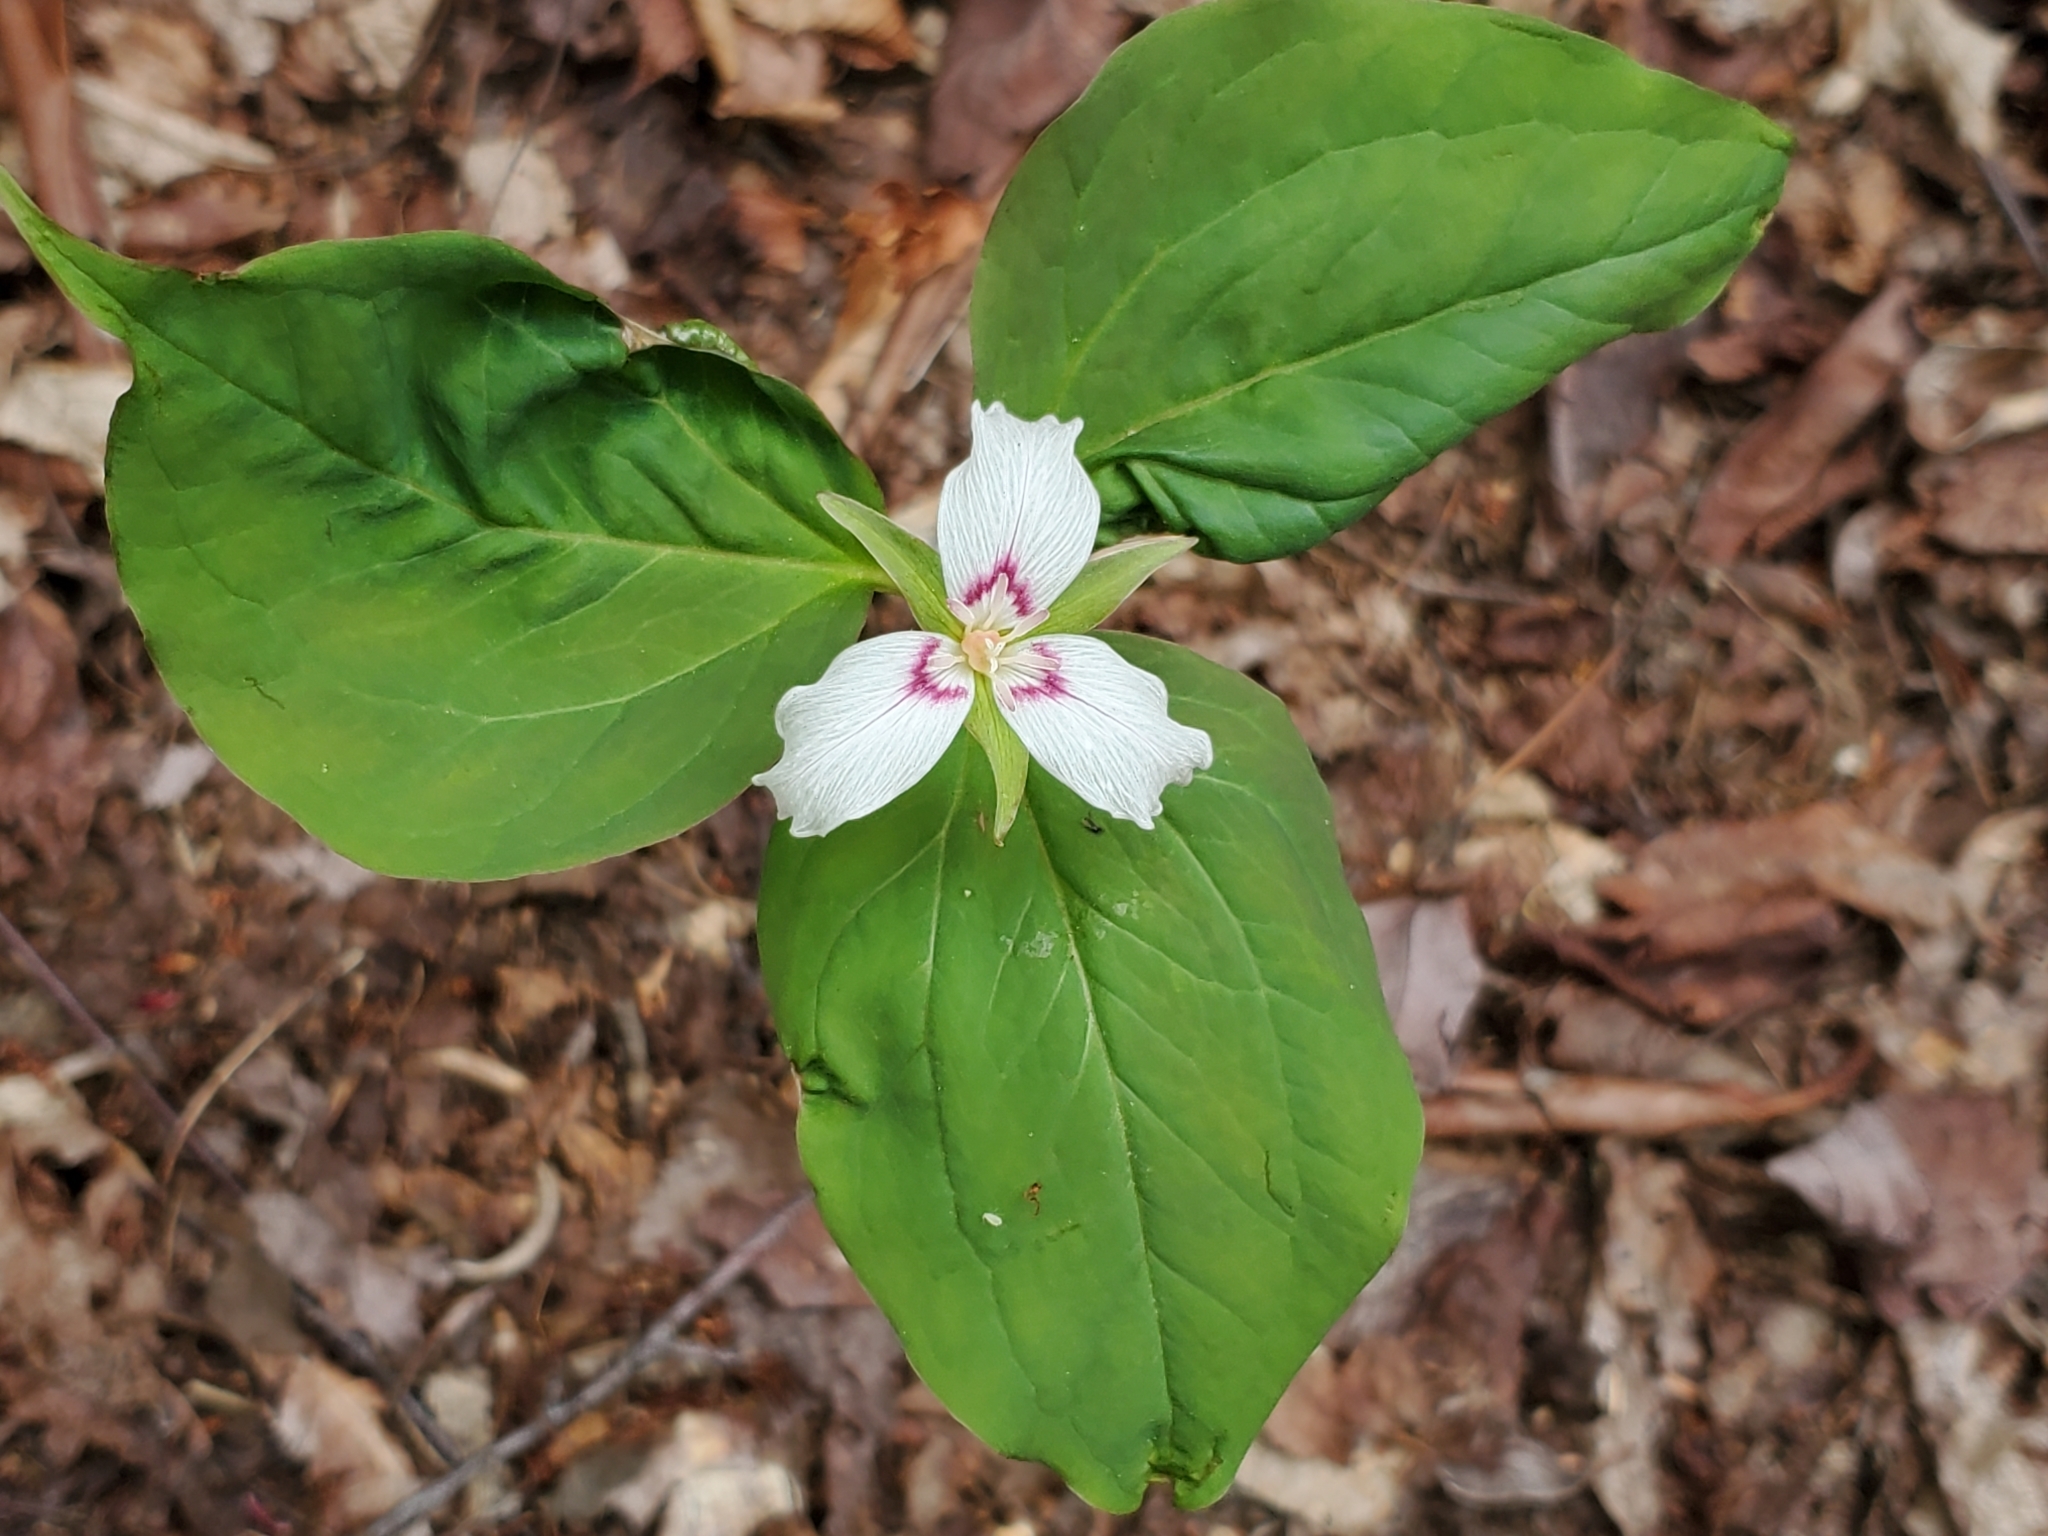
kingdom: Plantae
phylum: Tracheophyta
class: Liliopsida
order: Liliales
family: Melanthiaceae
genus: Trillium
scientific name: Trillium undulatum
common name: Paint trillium
